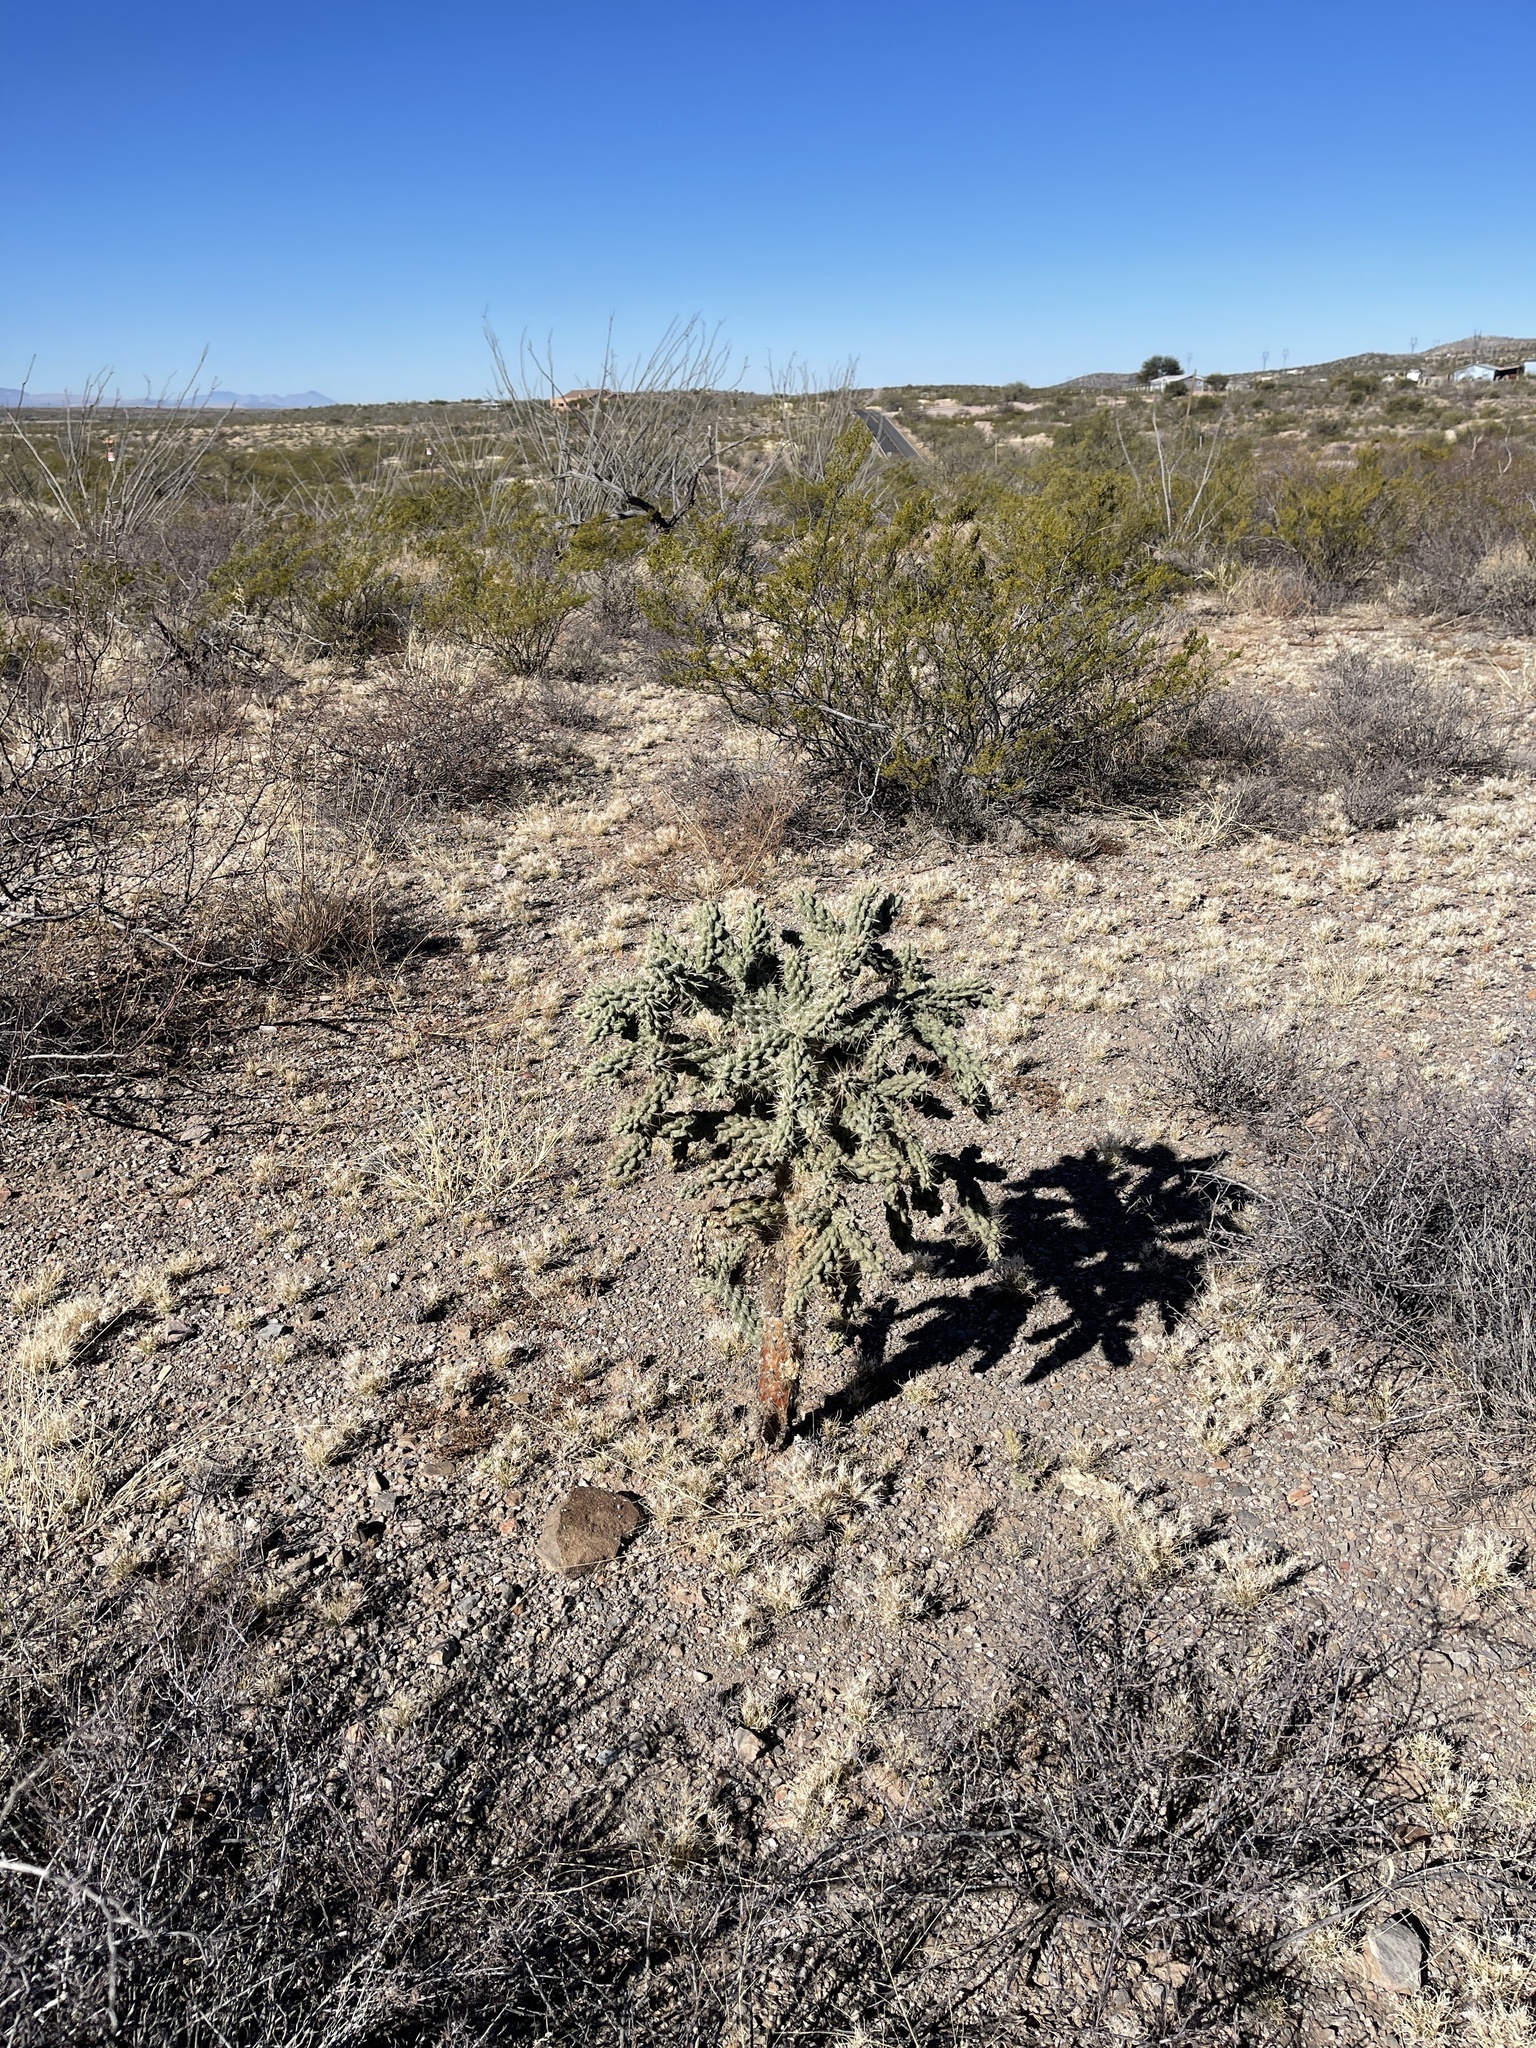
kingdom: Plantae
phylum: Tracheophyta
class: Magnoliopsida
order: Caryophyllales
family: Cactaceae
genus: Cylindropuntia
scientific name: Cylindropuntia fulgida
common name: Jumping cholla
